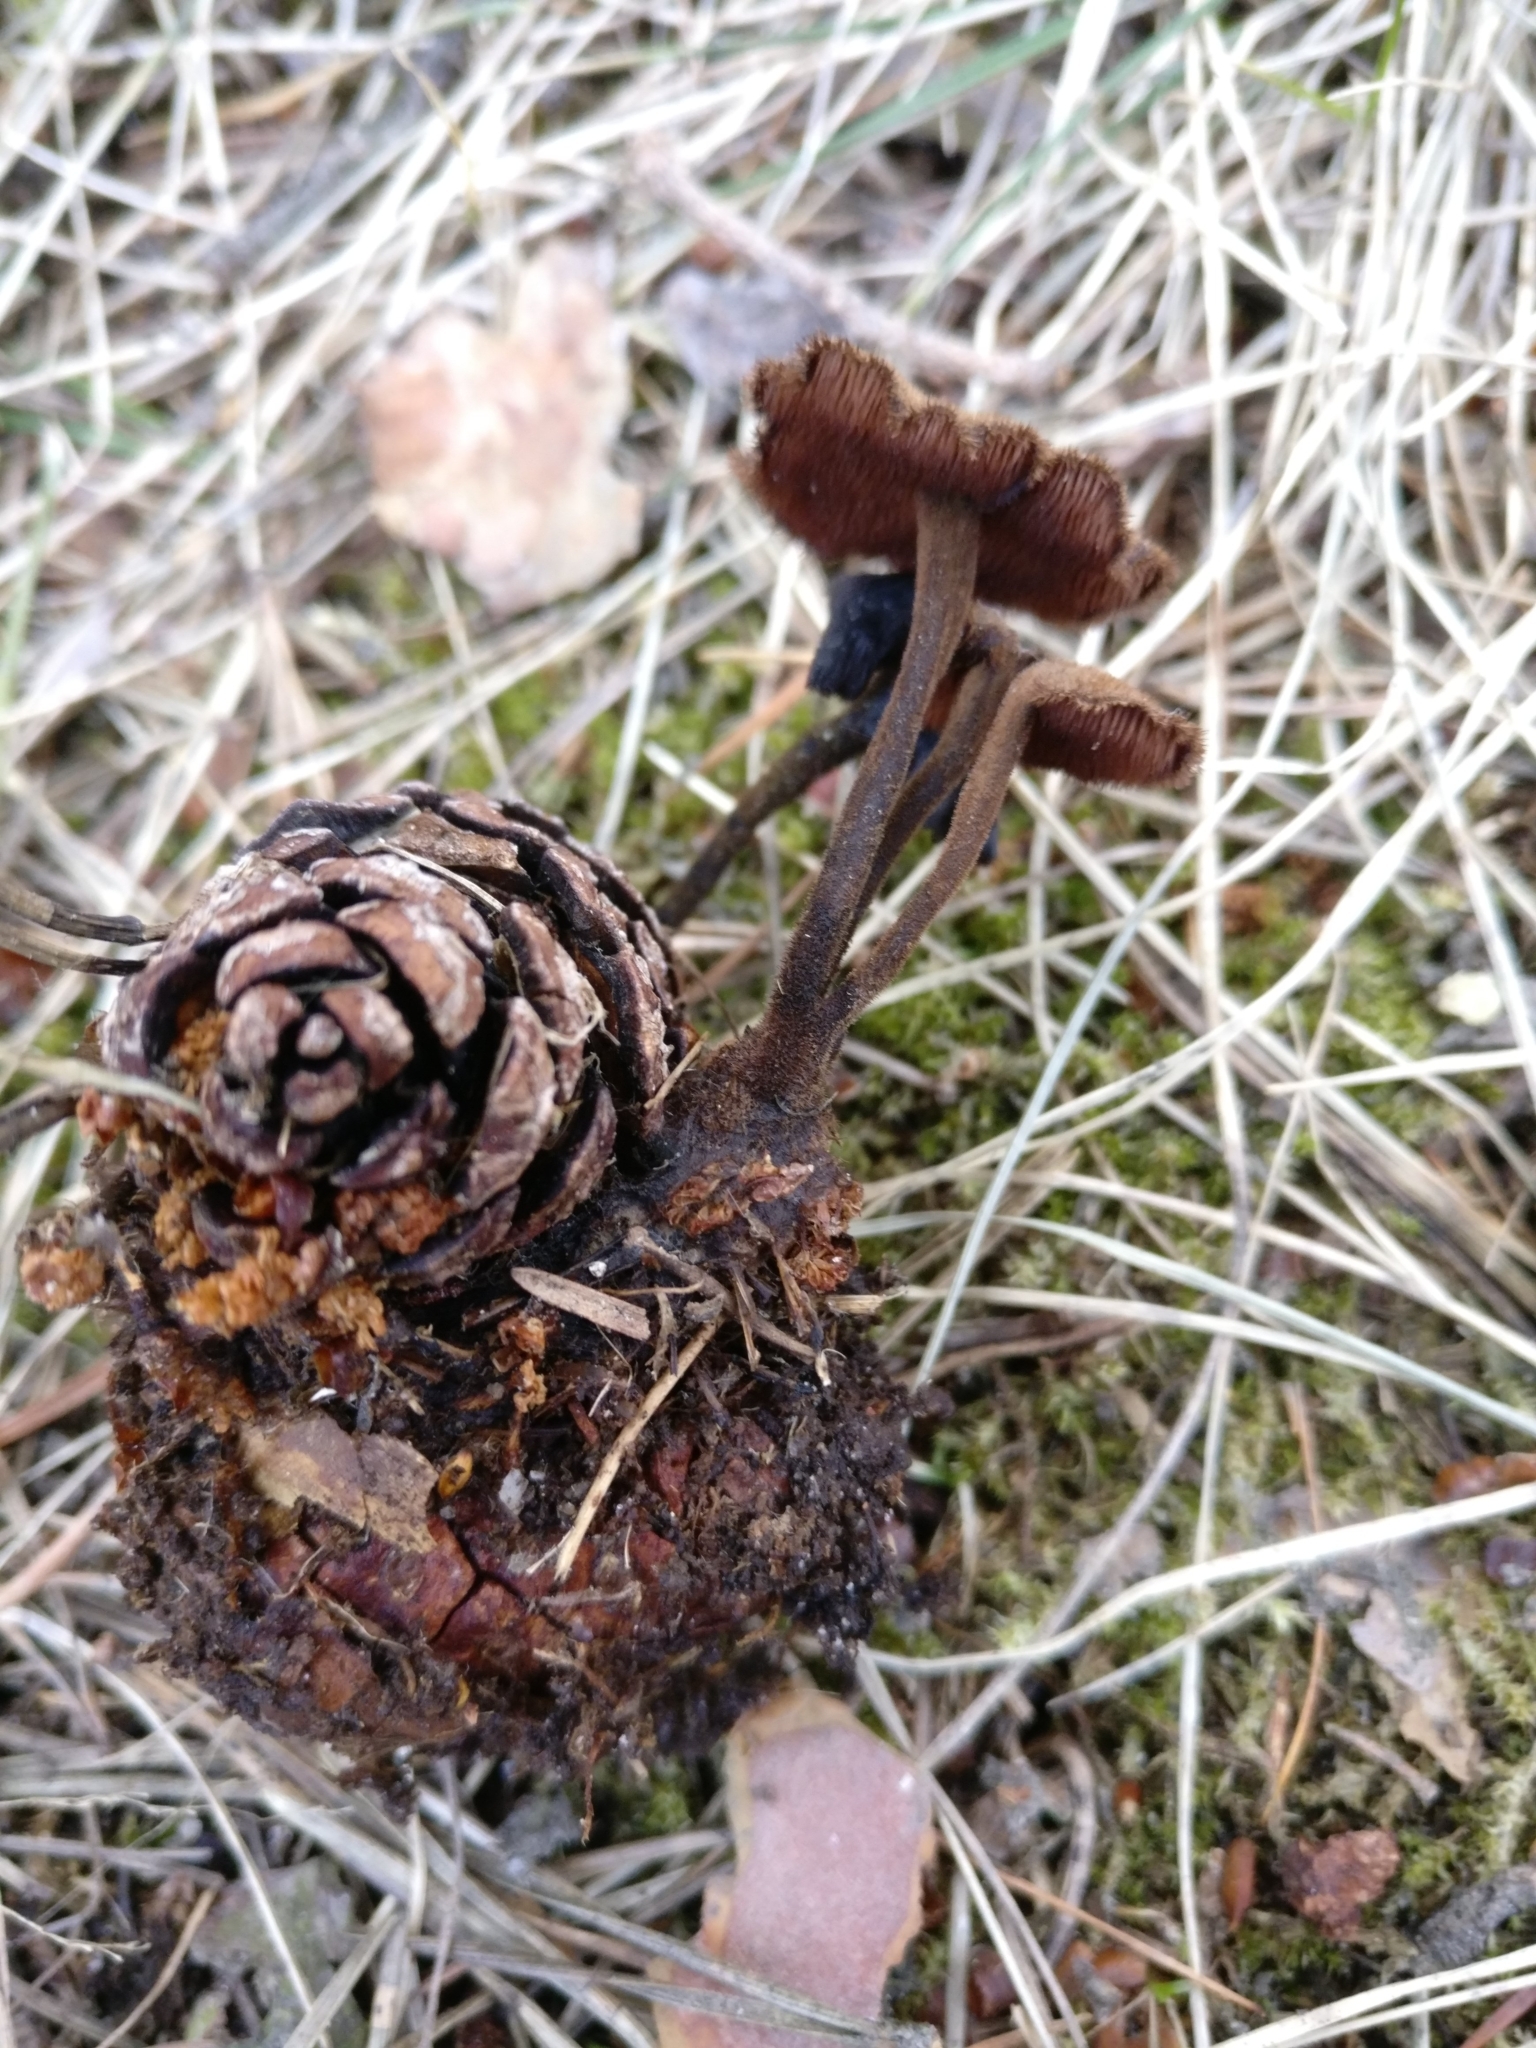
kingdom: Fungi
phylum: Basidiomycota
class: Agaricomycetes
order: Russulales
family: Auriscalpiaceae
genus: Auriscalpium
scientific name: Auriscalpium vulgare
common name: Earpick fungus
